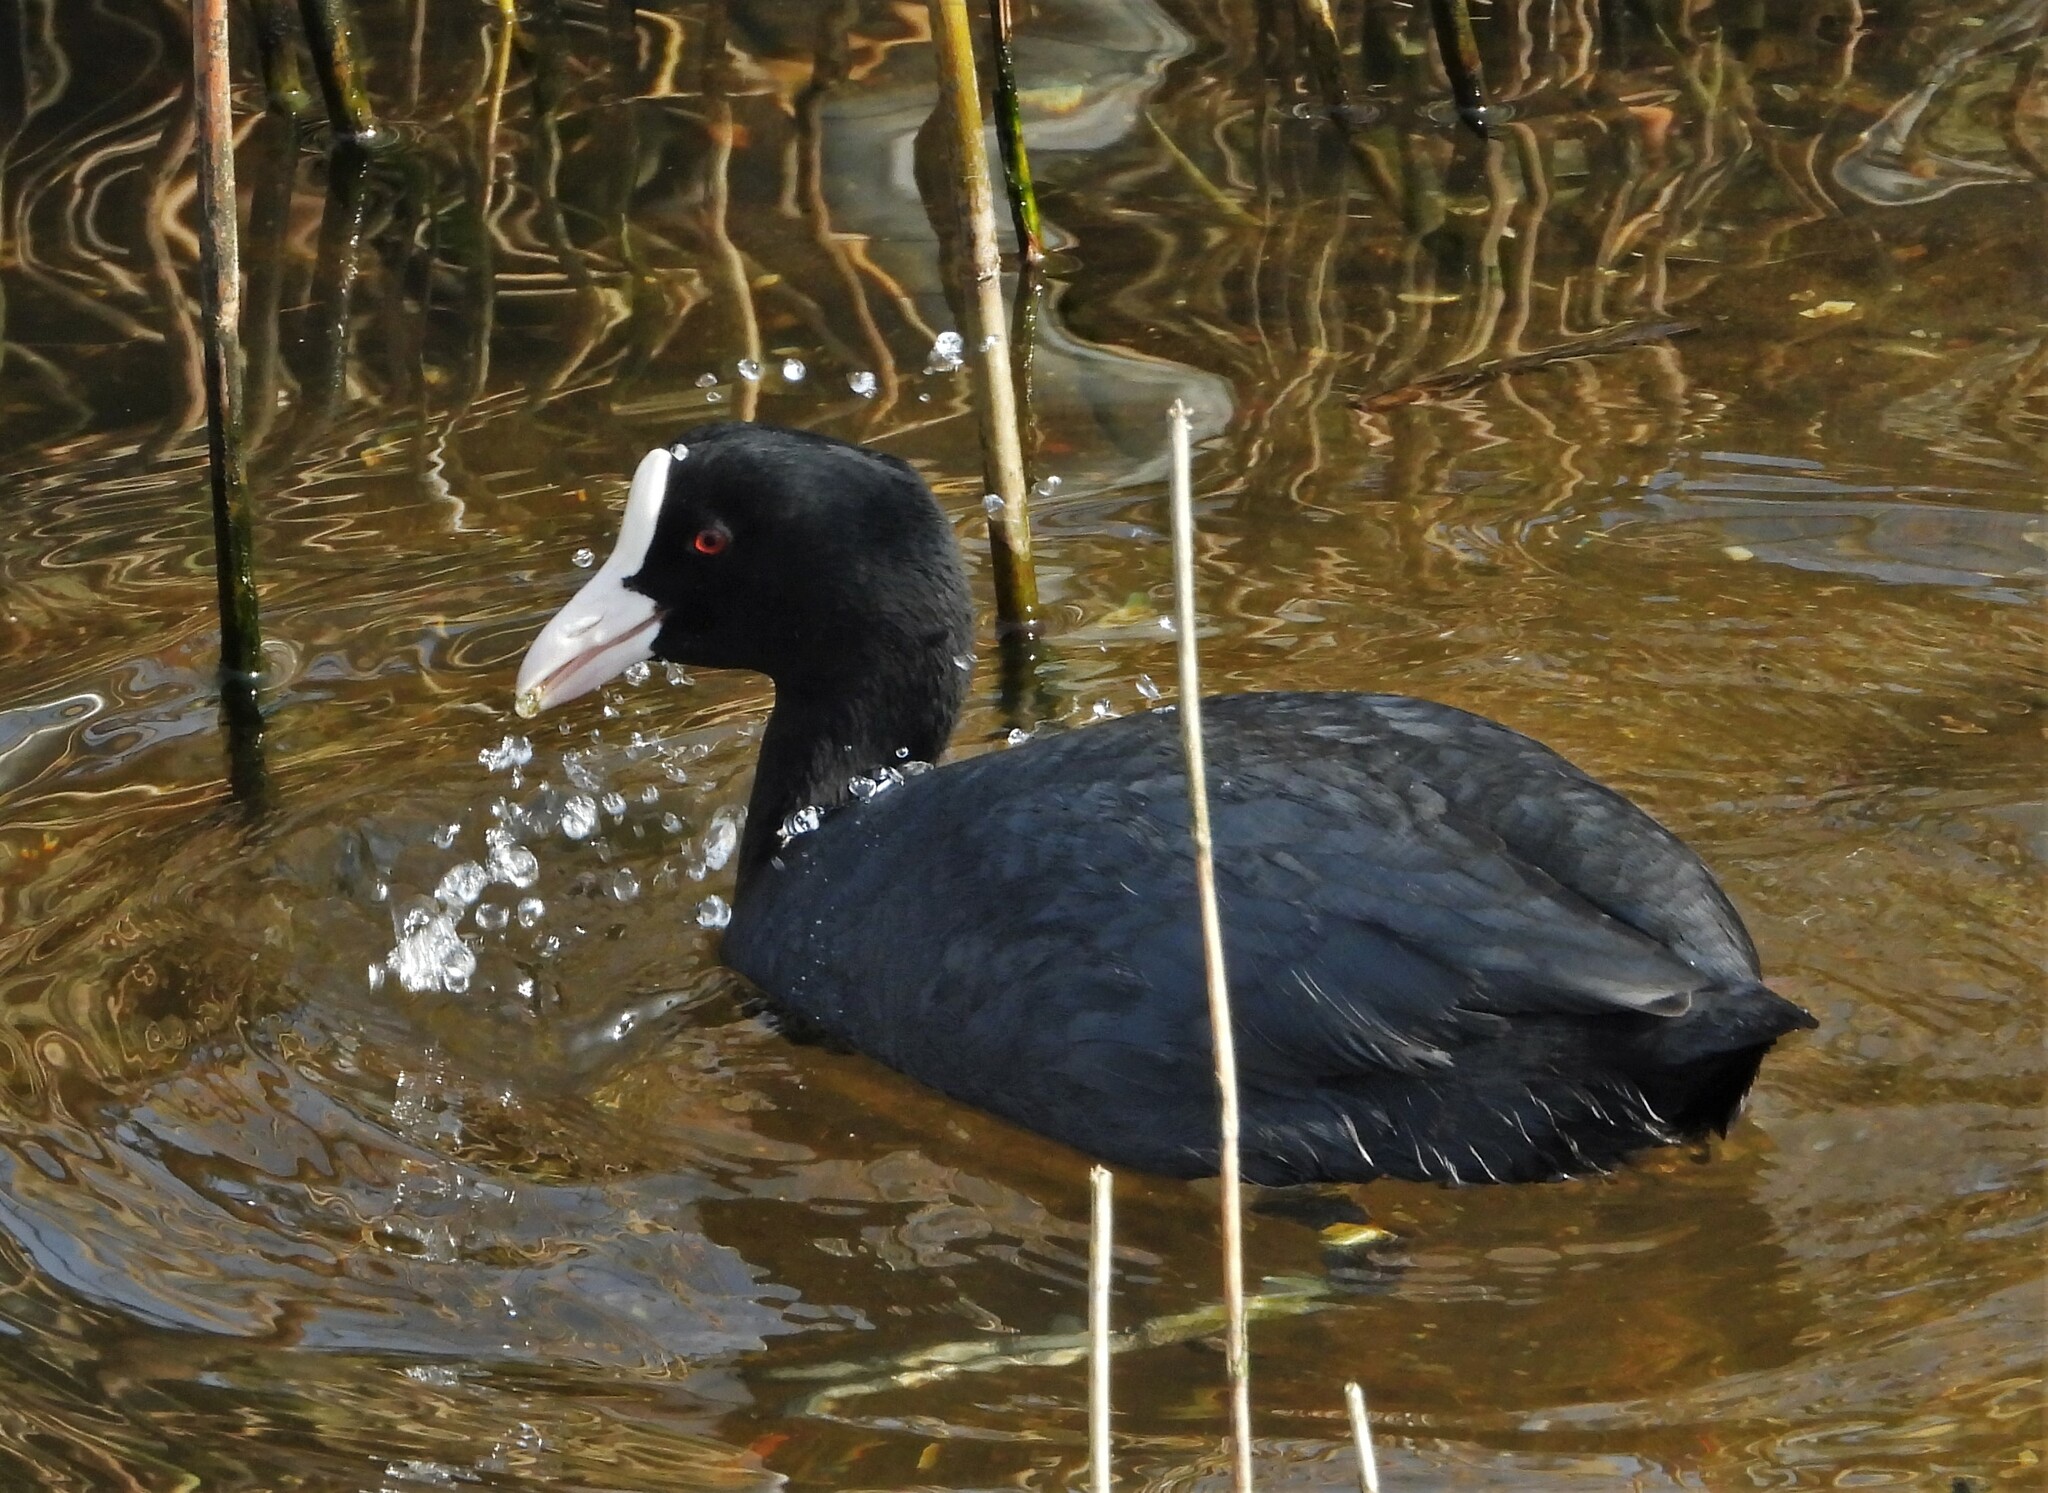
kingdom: Animalia
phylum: Chordata
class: Aves
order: Gruiformes
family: Rallidae
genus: Fulica
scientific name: Fulica atra
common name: Eurasian coot
